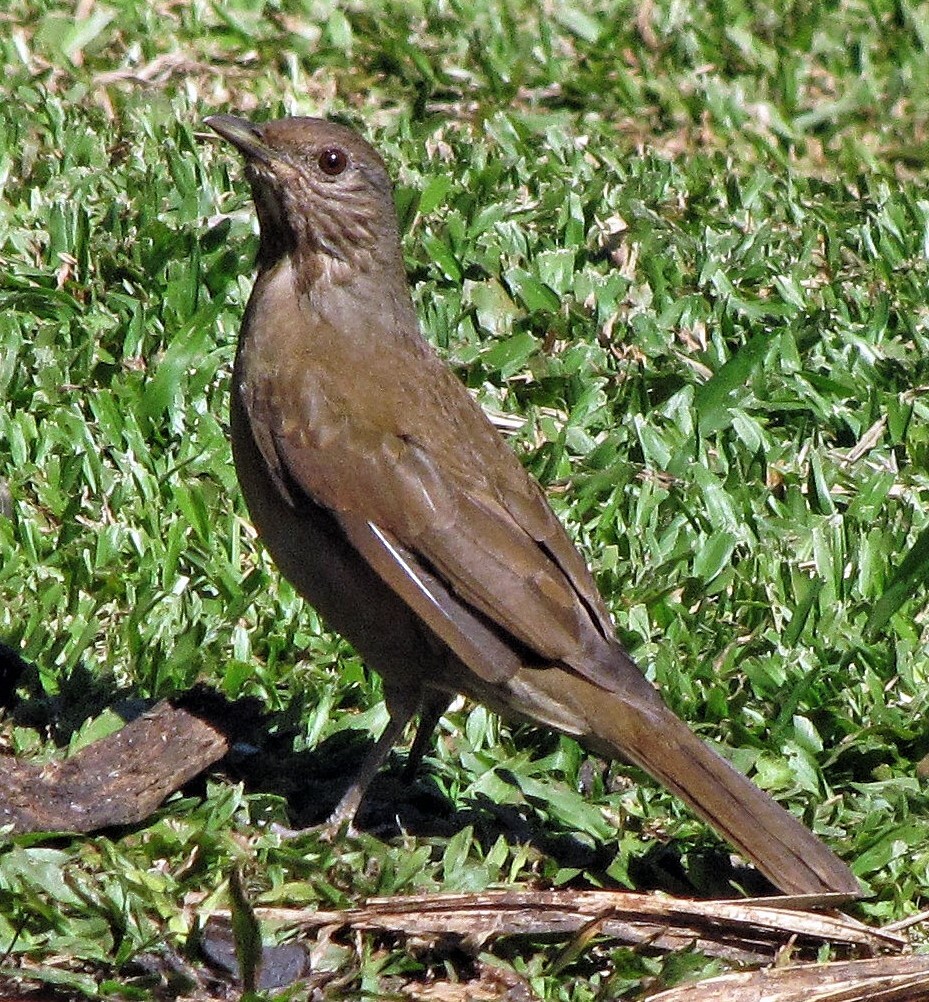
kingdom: Animalia
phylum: Chordata
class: Aves
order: Passeriformes
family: Turdidae
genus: Turdus
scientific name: Turdus leucomelas
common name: Pale-breasted thrush
